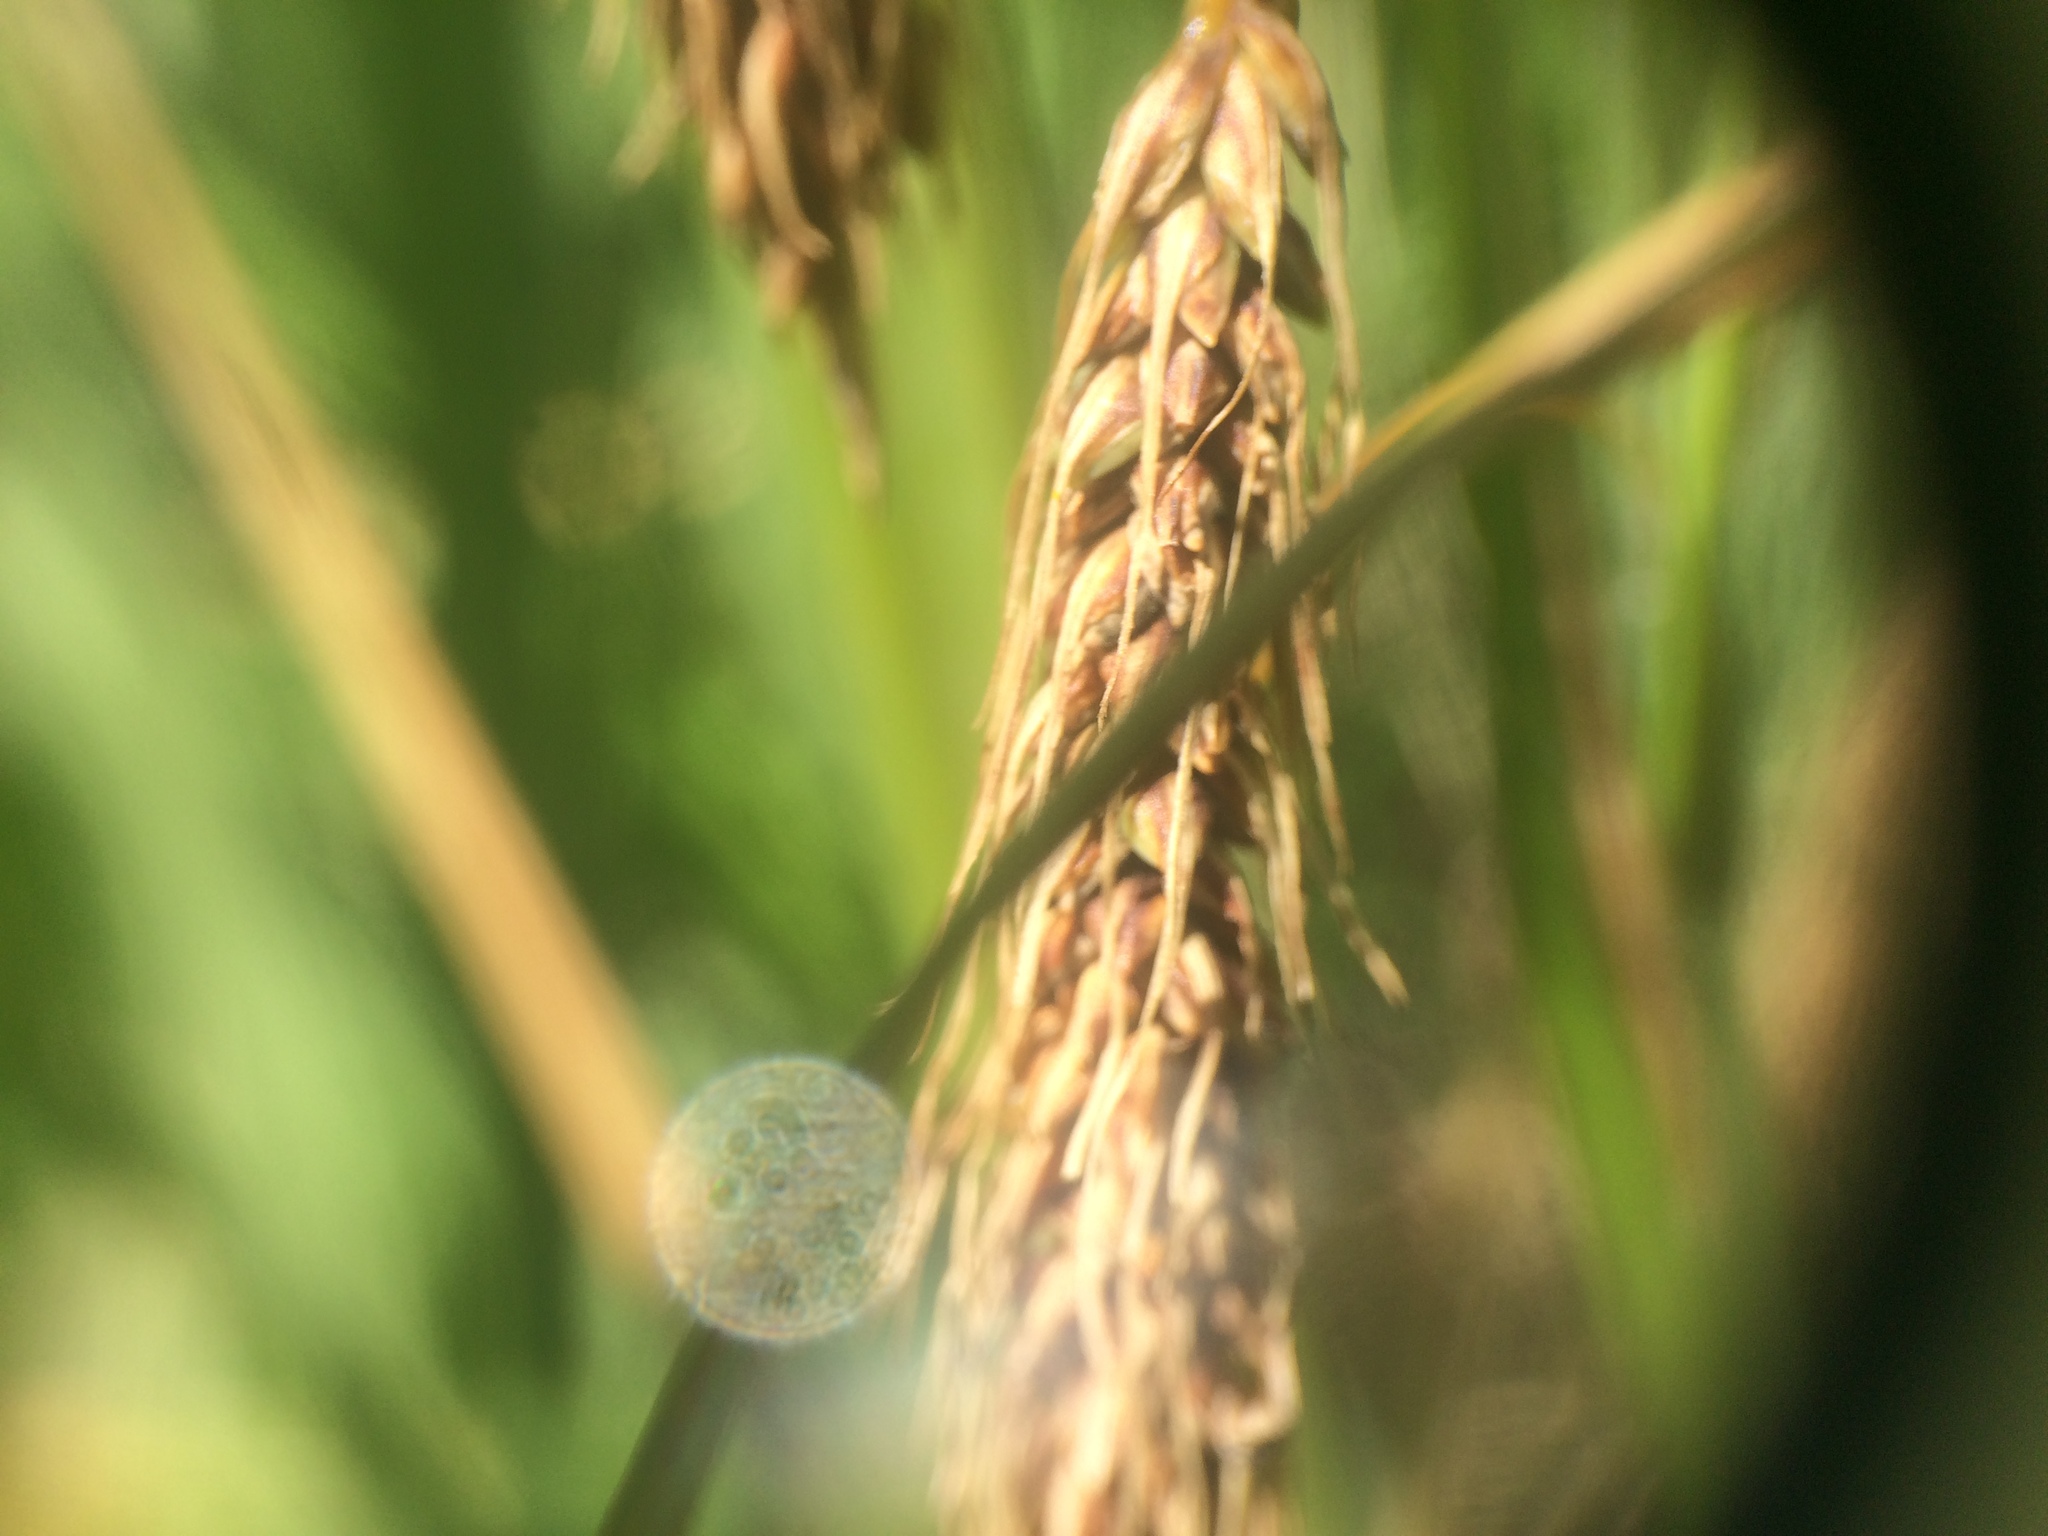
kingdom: Plantae
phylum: Tracheophyta
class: Liliopsida
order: Poales
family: Cyperaceae
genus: Carex
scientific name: Carex paleacea
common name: Chaffy sedge
